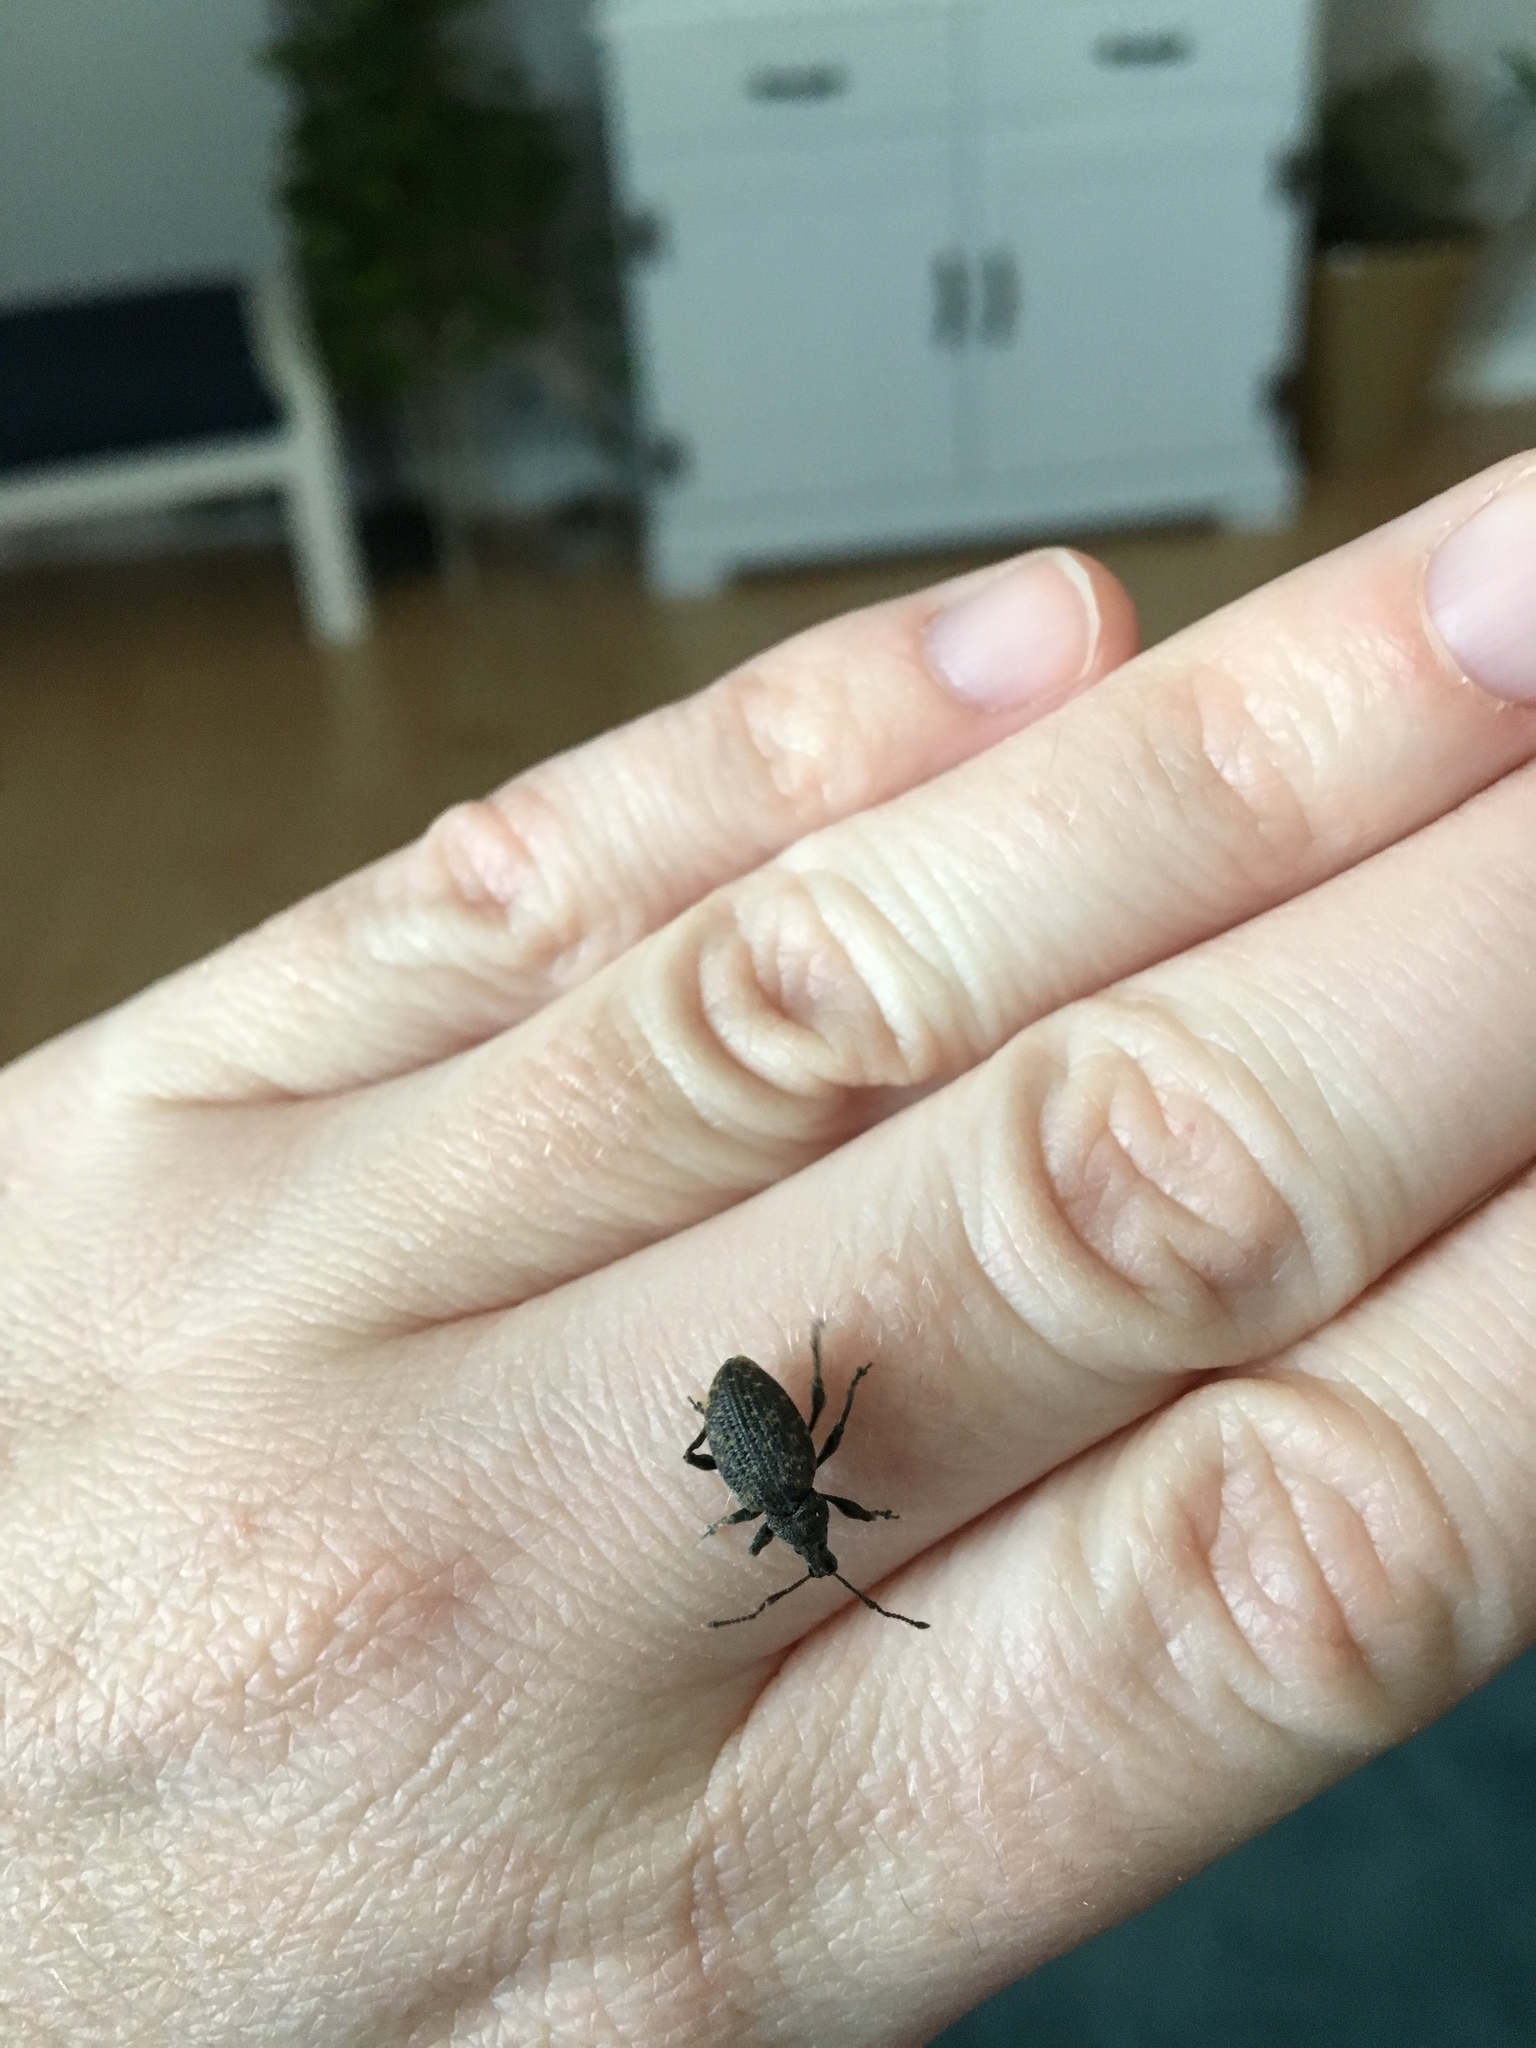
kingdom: Animalia
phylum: Arthropoda
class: Insecta
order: Coleoptera
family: Curculionidae
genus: Otiorhynchus
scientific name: Otiorhynchus sulcatus
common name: Black vine weevil
